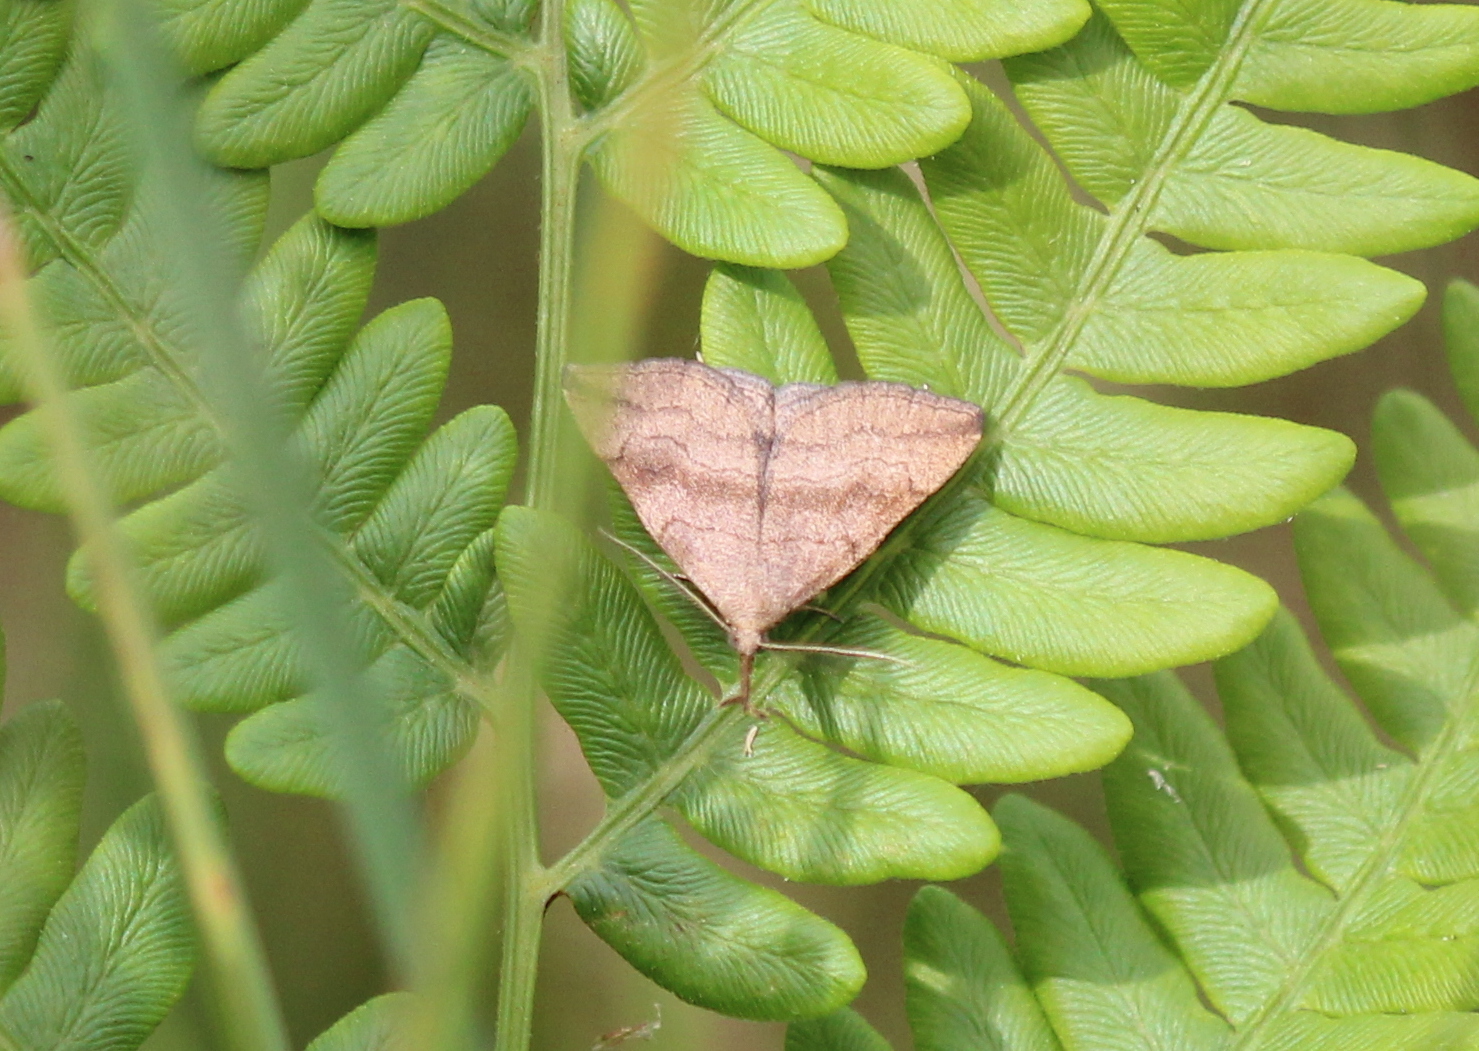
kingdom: Animalia
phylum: Arthropoda
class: Insecta
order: Lepidoptera
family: Erebidae
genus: Phalaenostola
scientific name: Phalaenostola metonalis
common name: Pale phalaenostola moth
